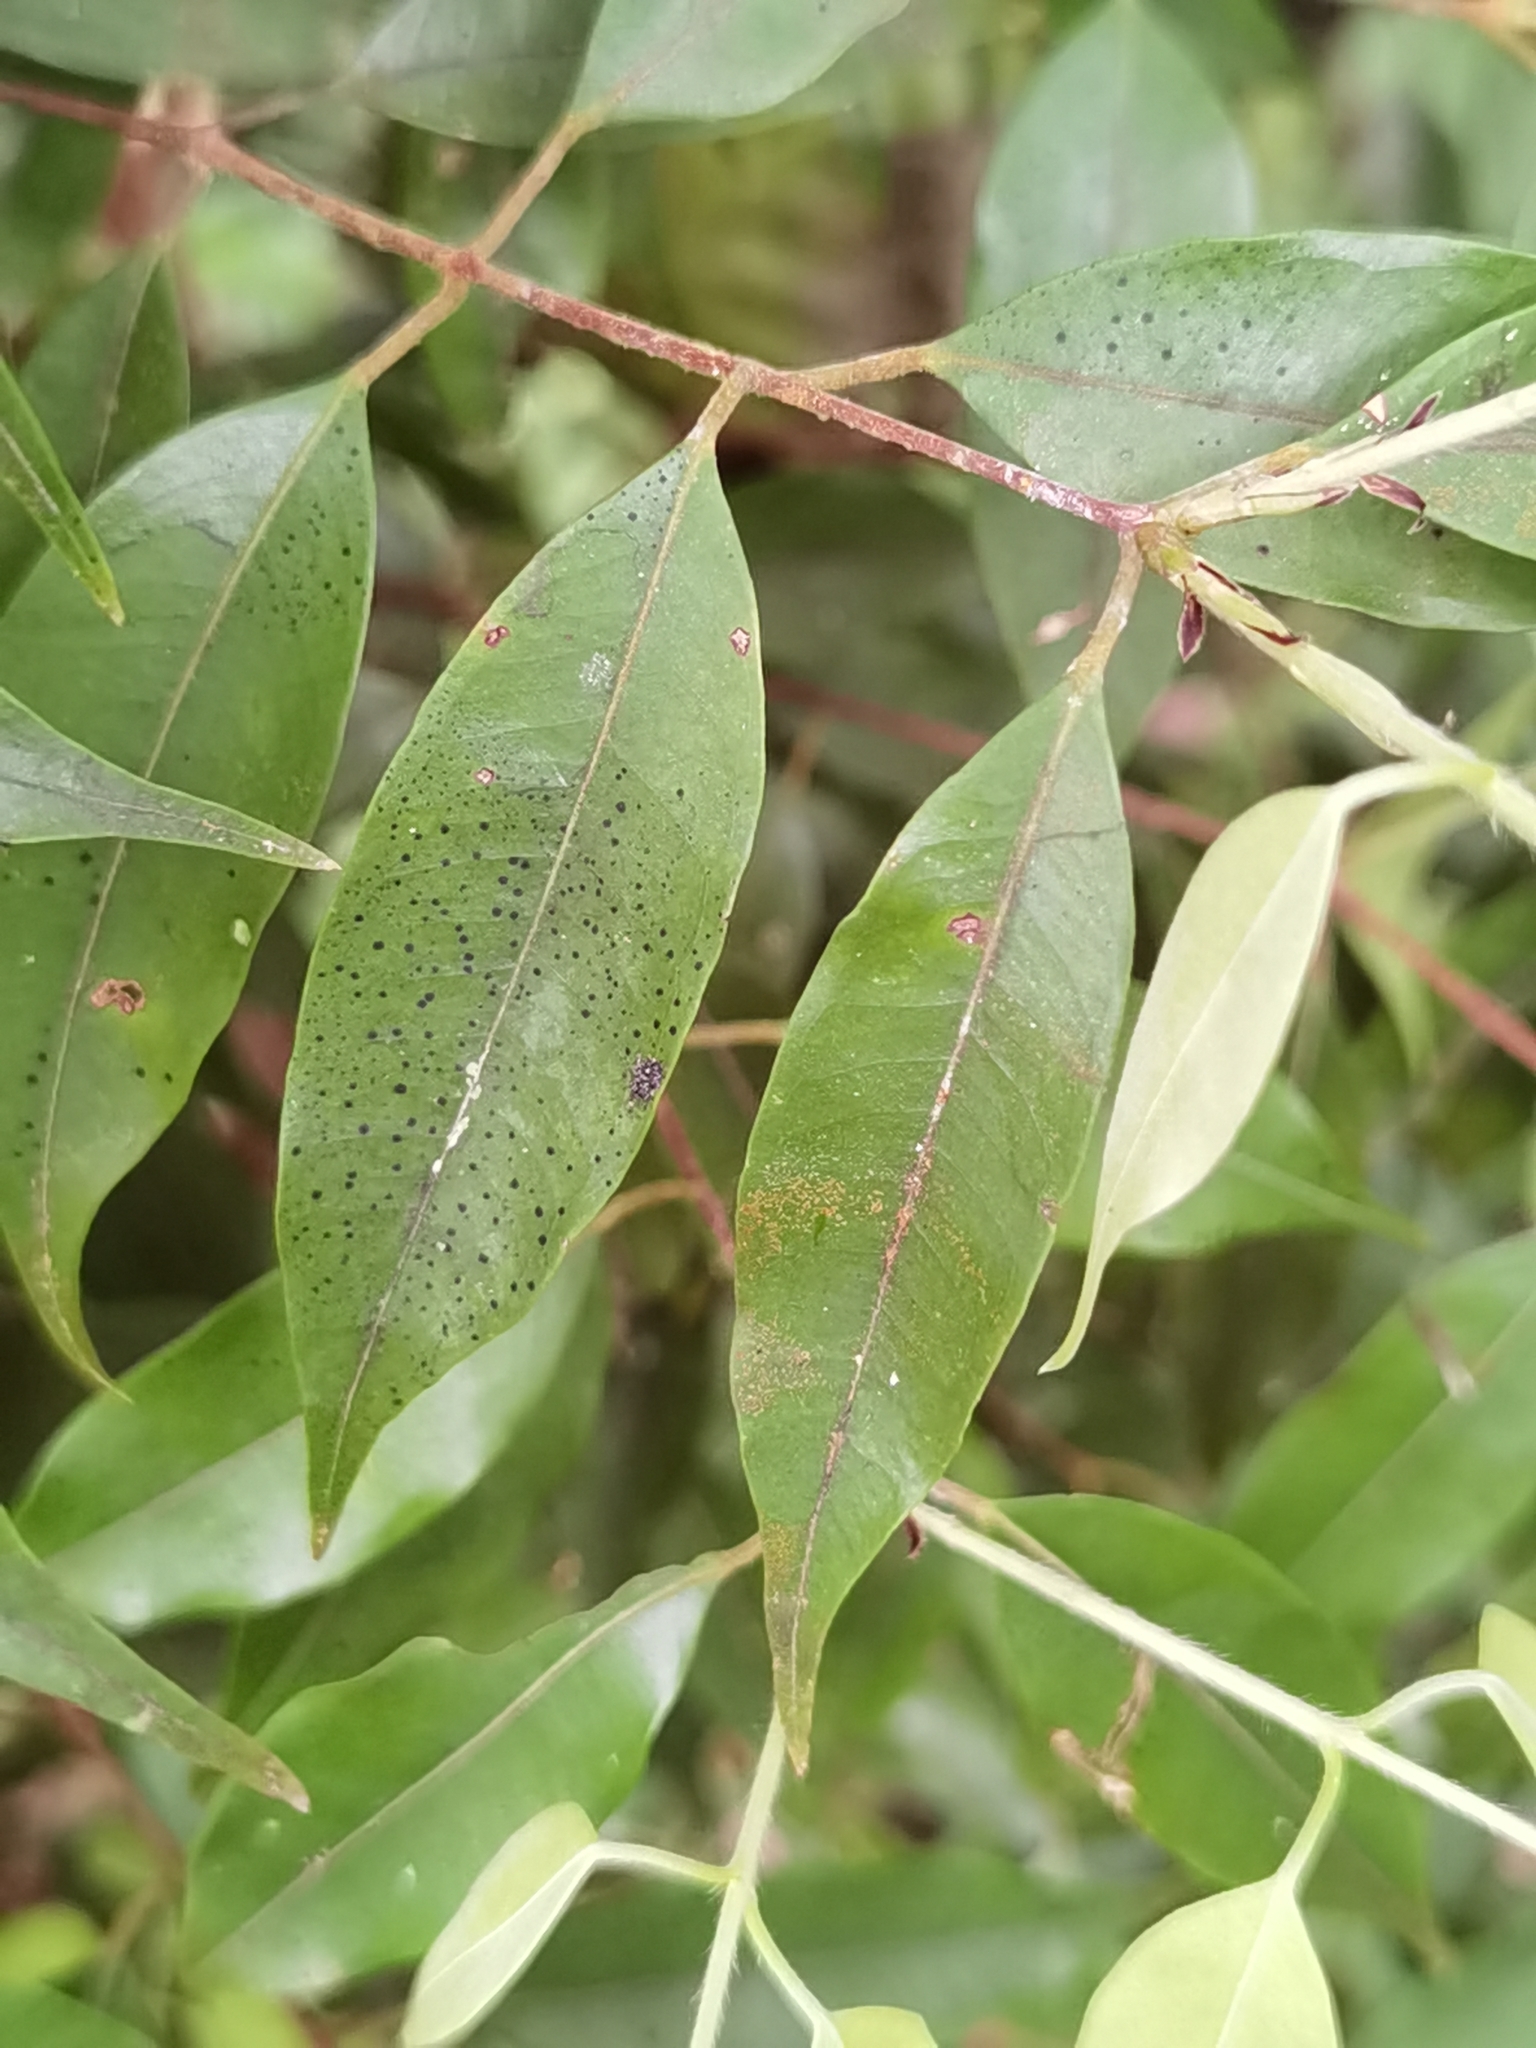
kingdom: Plantae
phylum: Tracheophyta
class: Magnoliopsida
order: Myrtales
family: Myrtaceae
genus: Plinia
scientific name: Plinia puriscalensis
